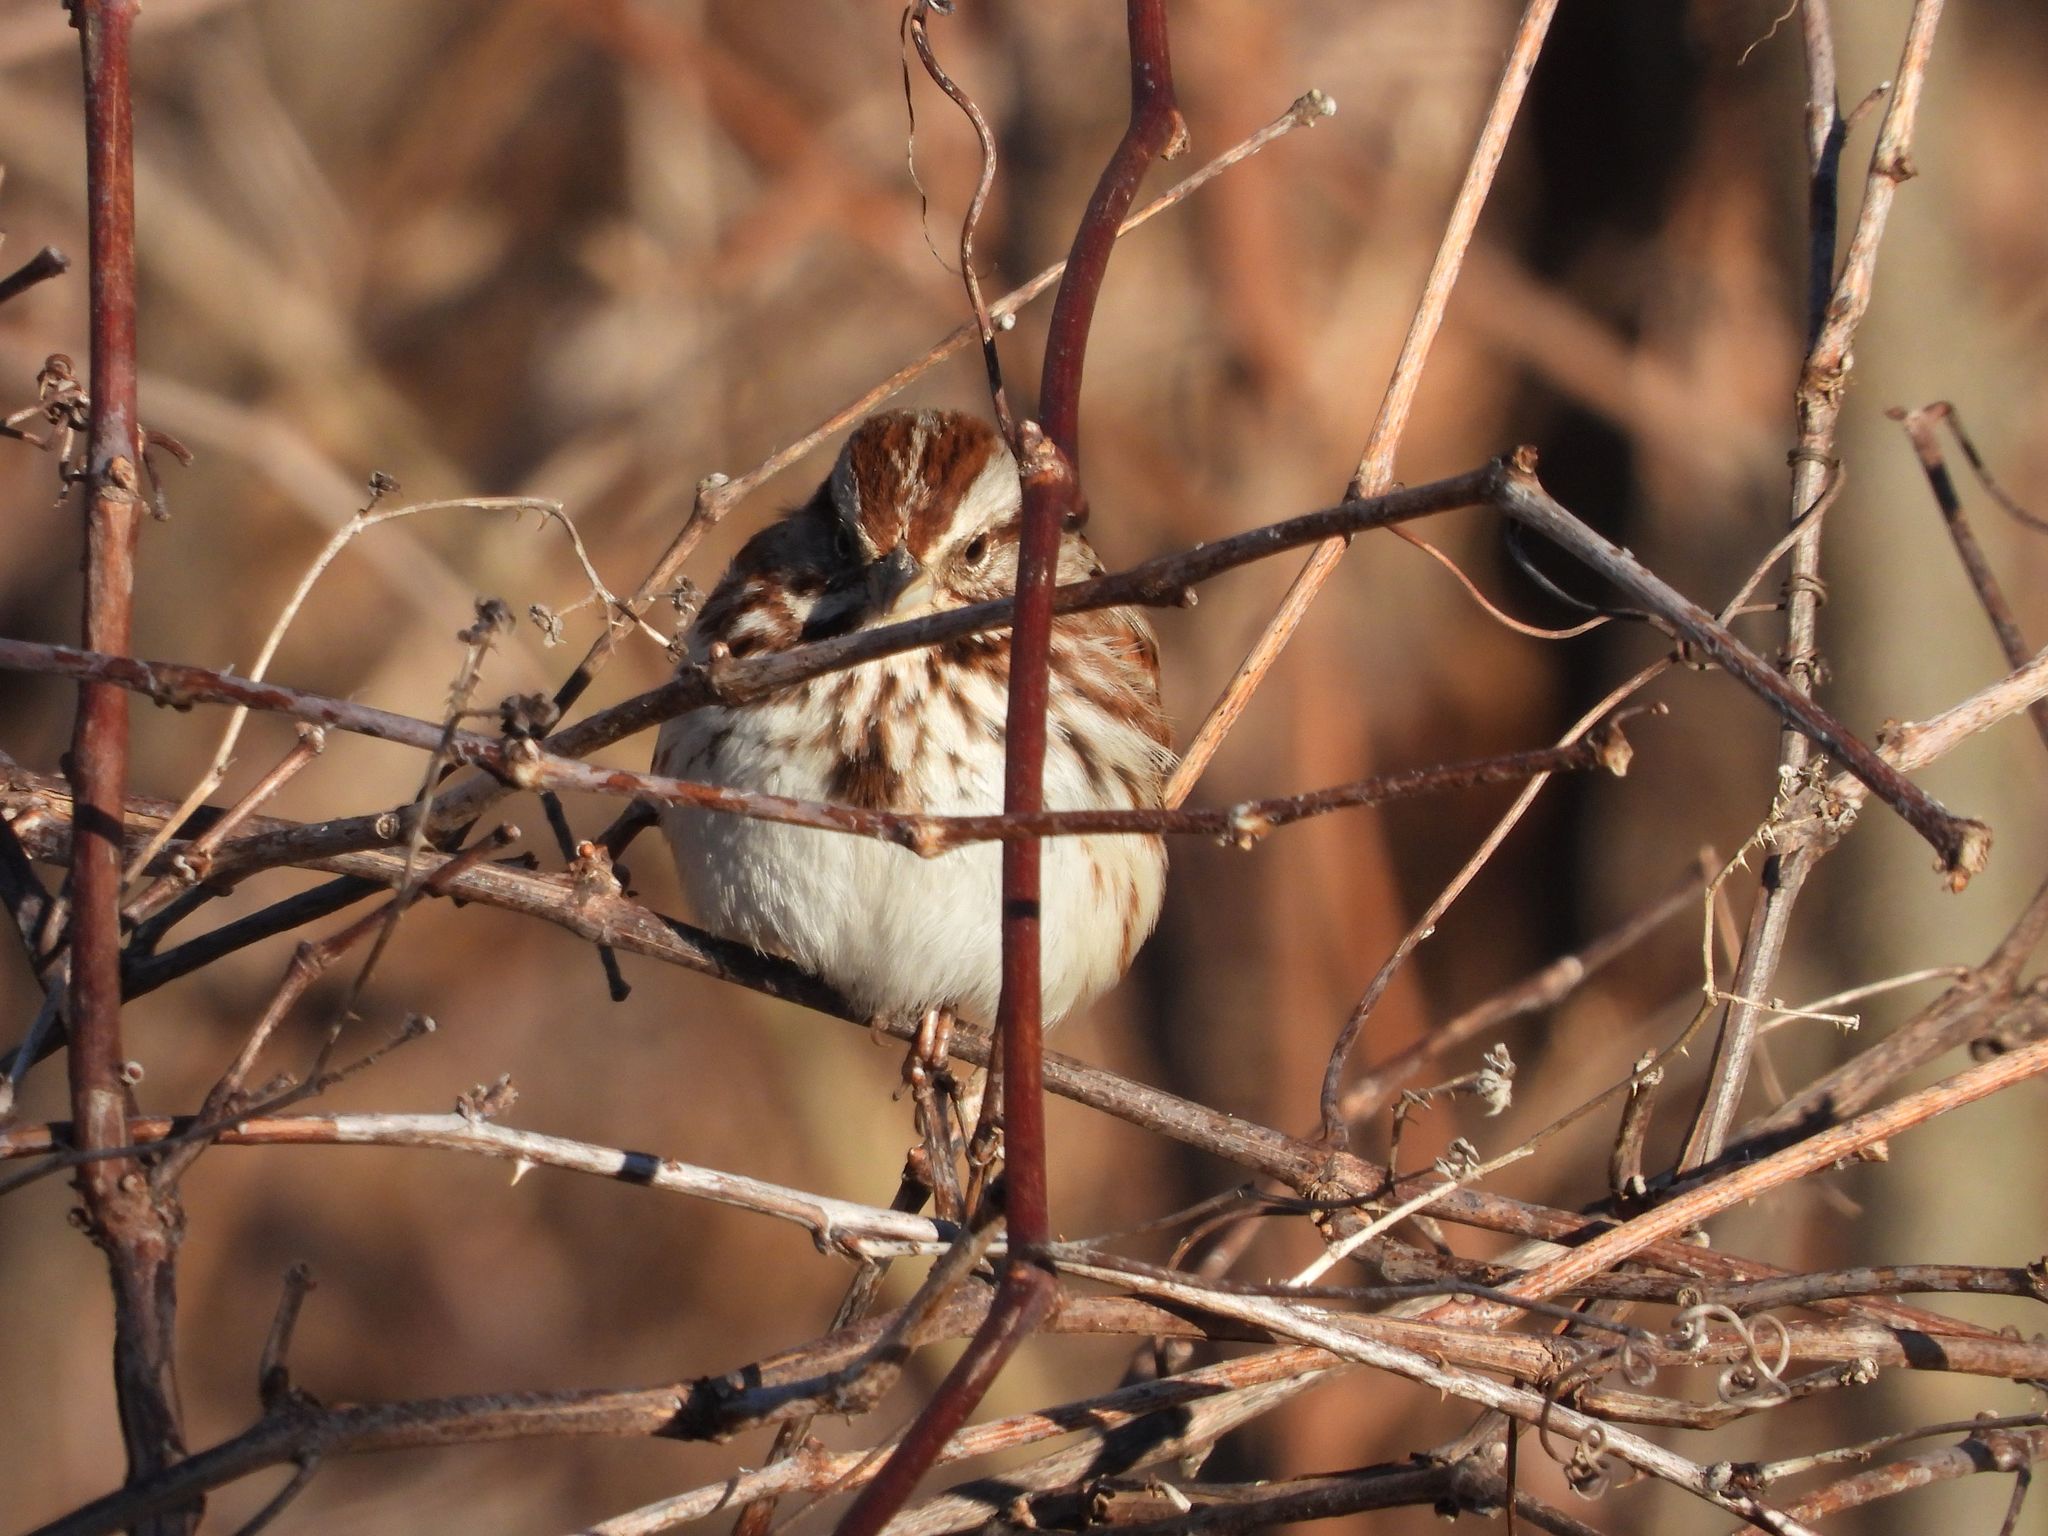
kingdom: Animalia
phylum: Chordata
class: Aves
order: Passeriformes
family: Passerellidae
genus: Melospiza
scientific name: Melospiza melodia
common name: Song sparrow
